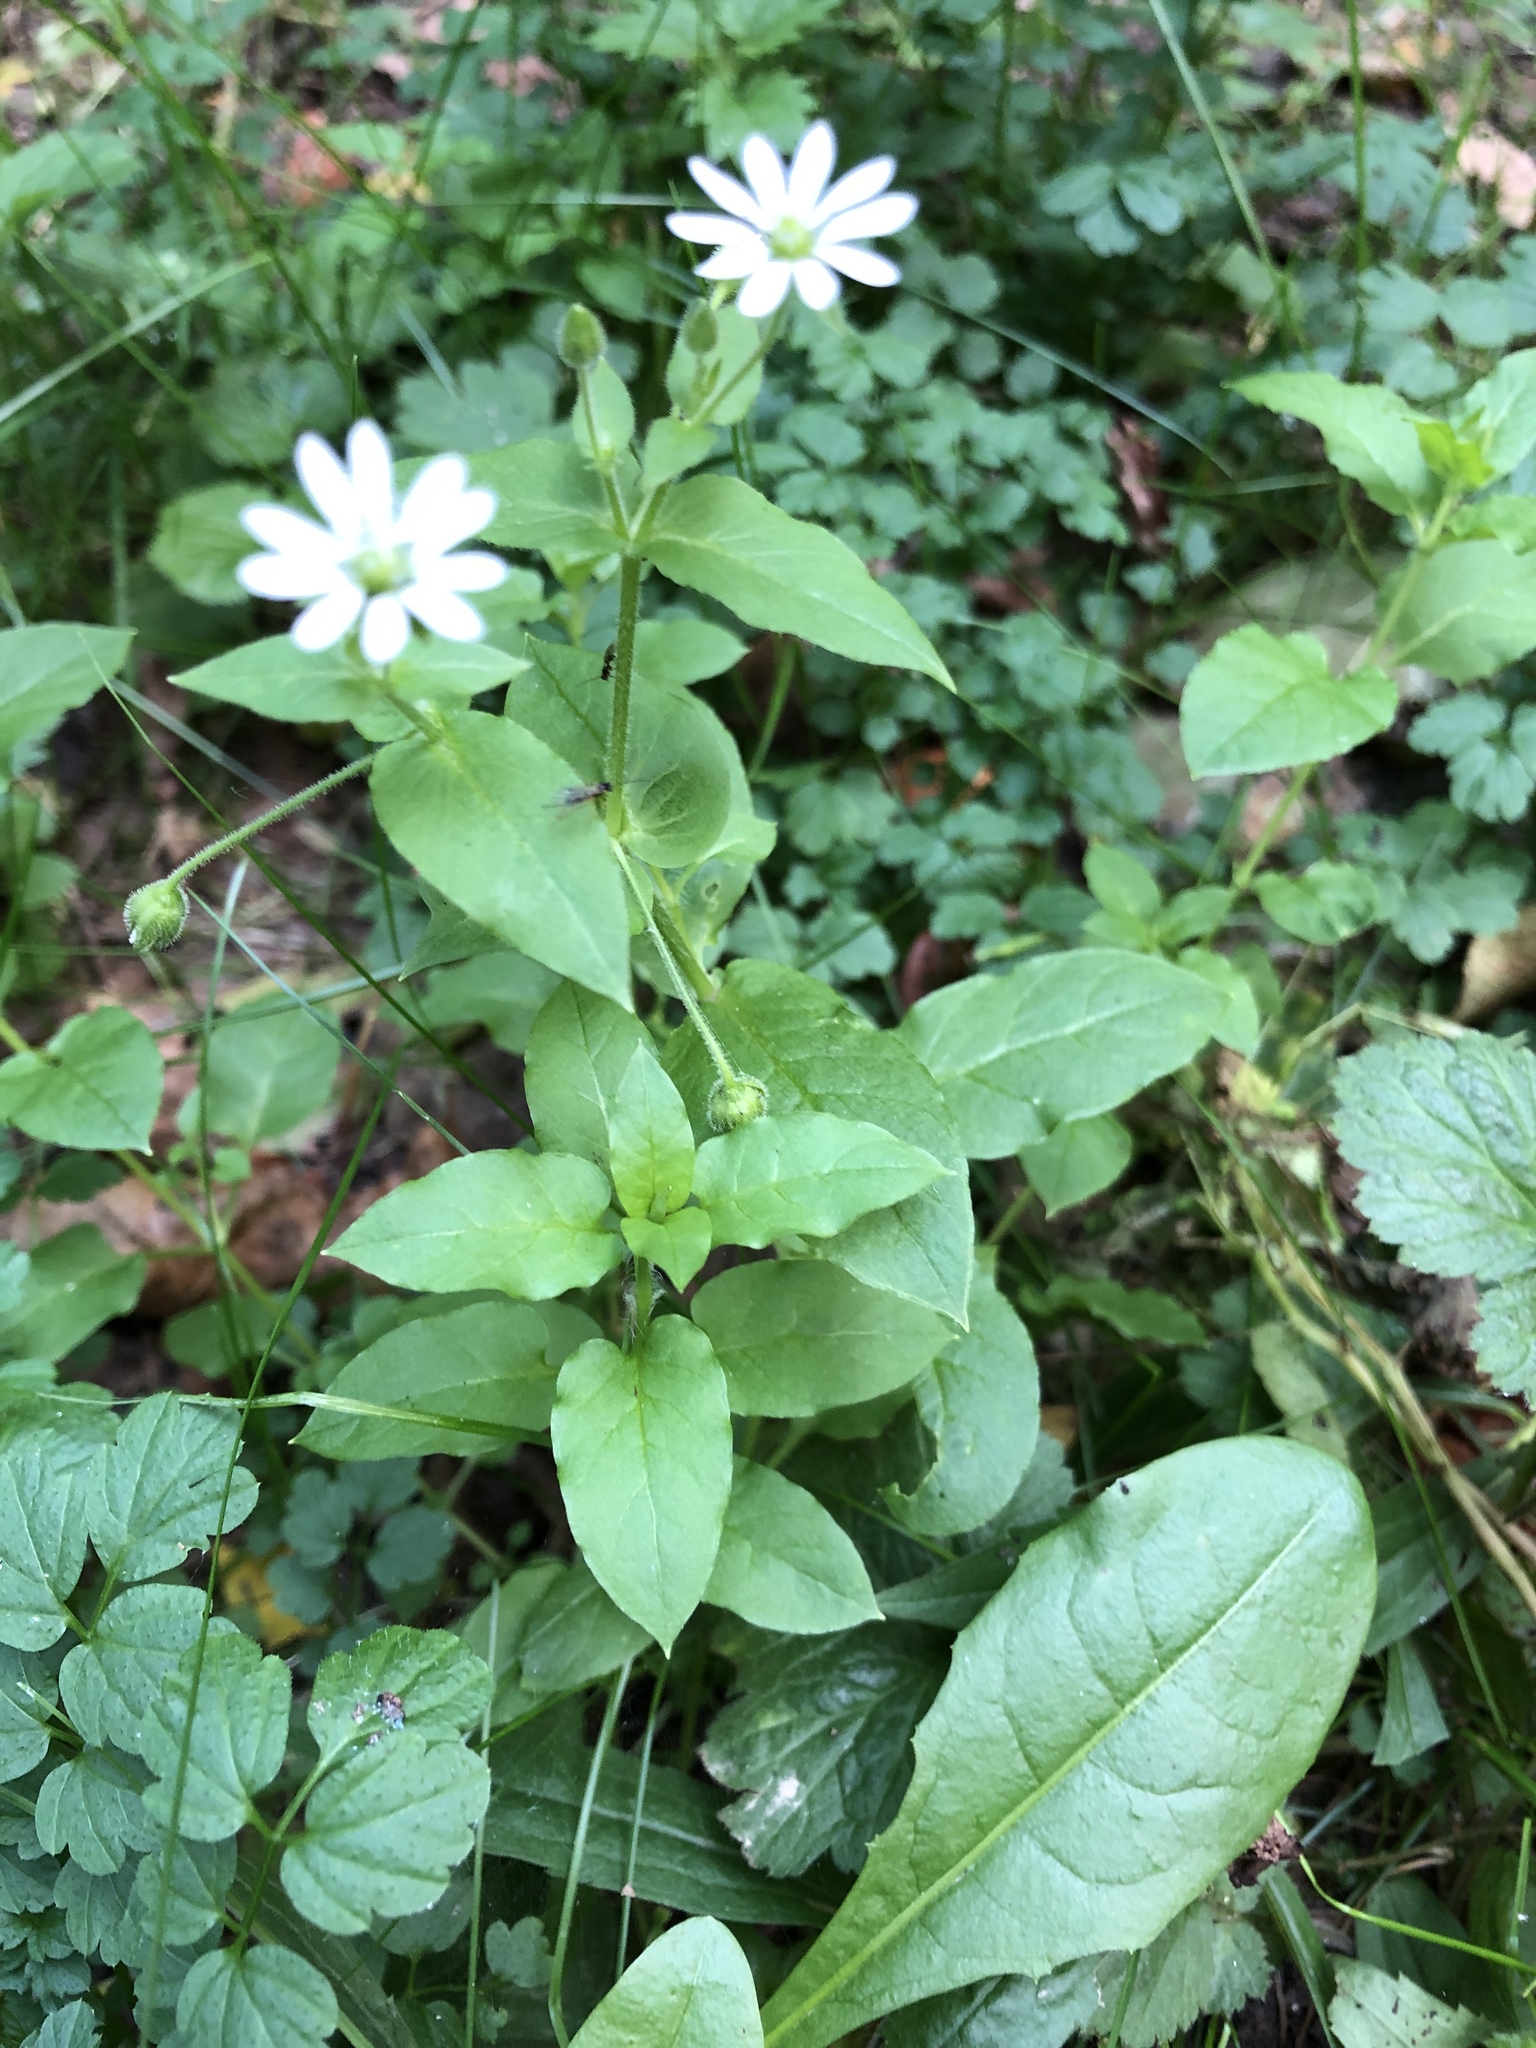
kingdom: Plantae
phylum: Tracheophyta
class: Magnoliopsida
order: Caryophyllales
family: Caryophyllaceae
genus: Stellaria
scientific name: Stellaria aquatica
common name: Water chickweed
